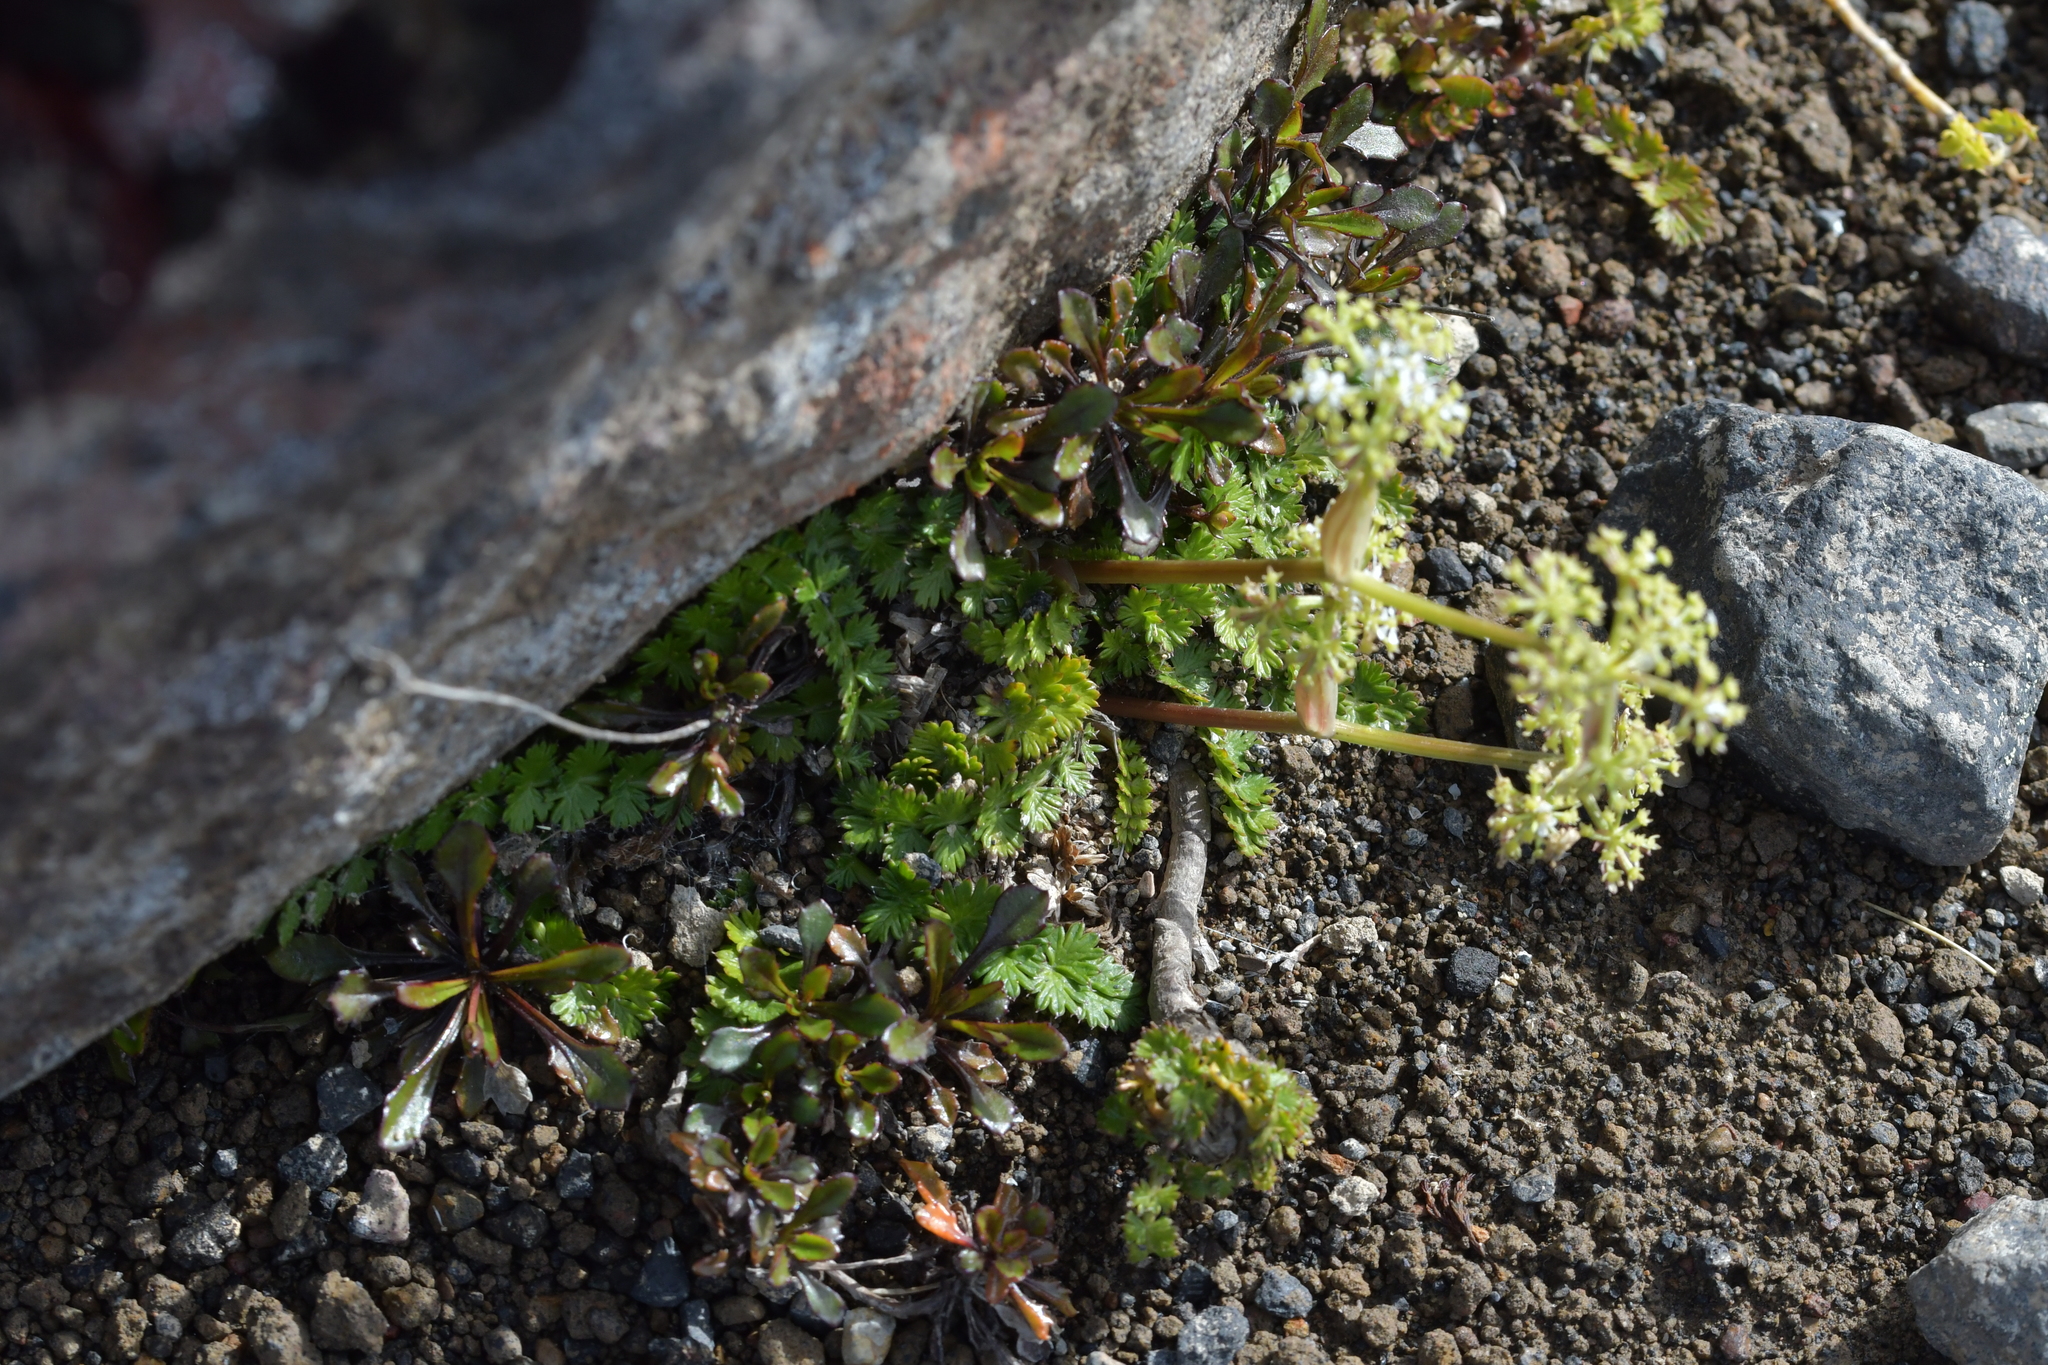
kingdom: Plantae
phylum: Tracheophyta
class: Magnoliopsida
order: Apiales
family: Apiaceae
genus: Anisotome
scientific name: Anisotome aromatica
